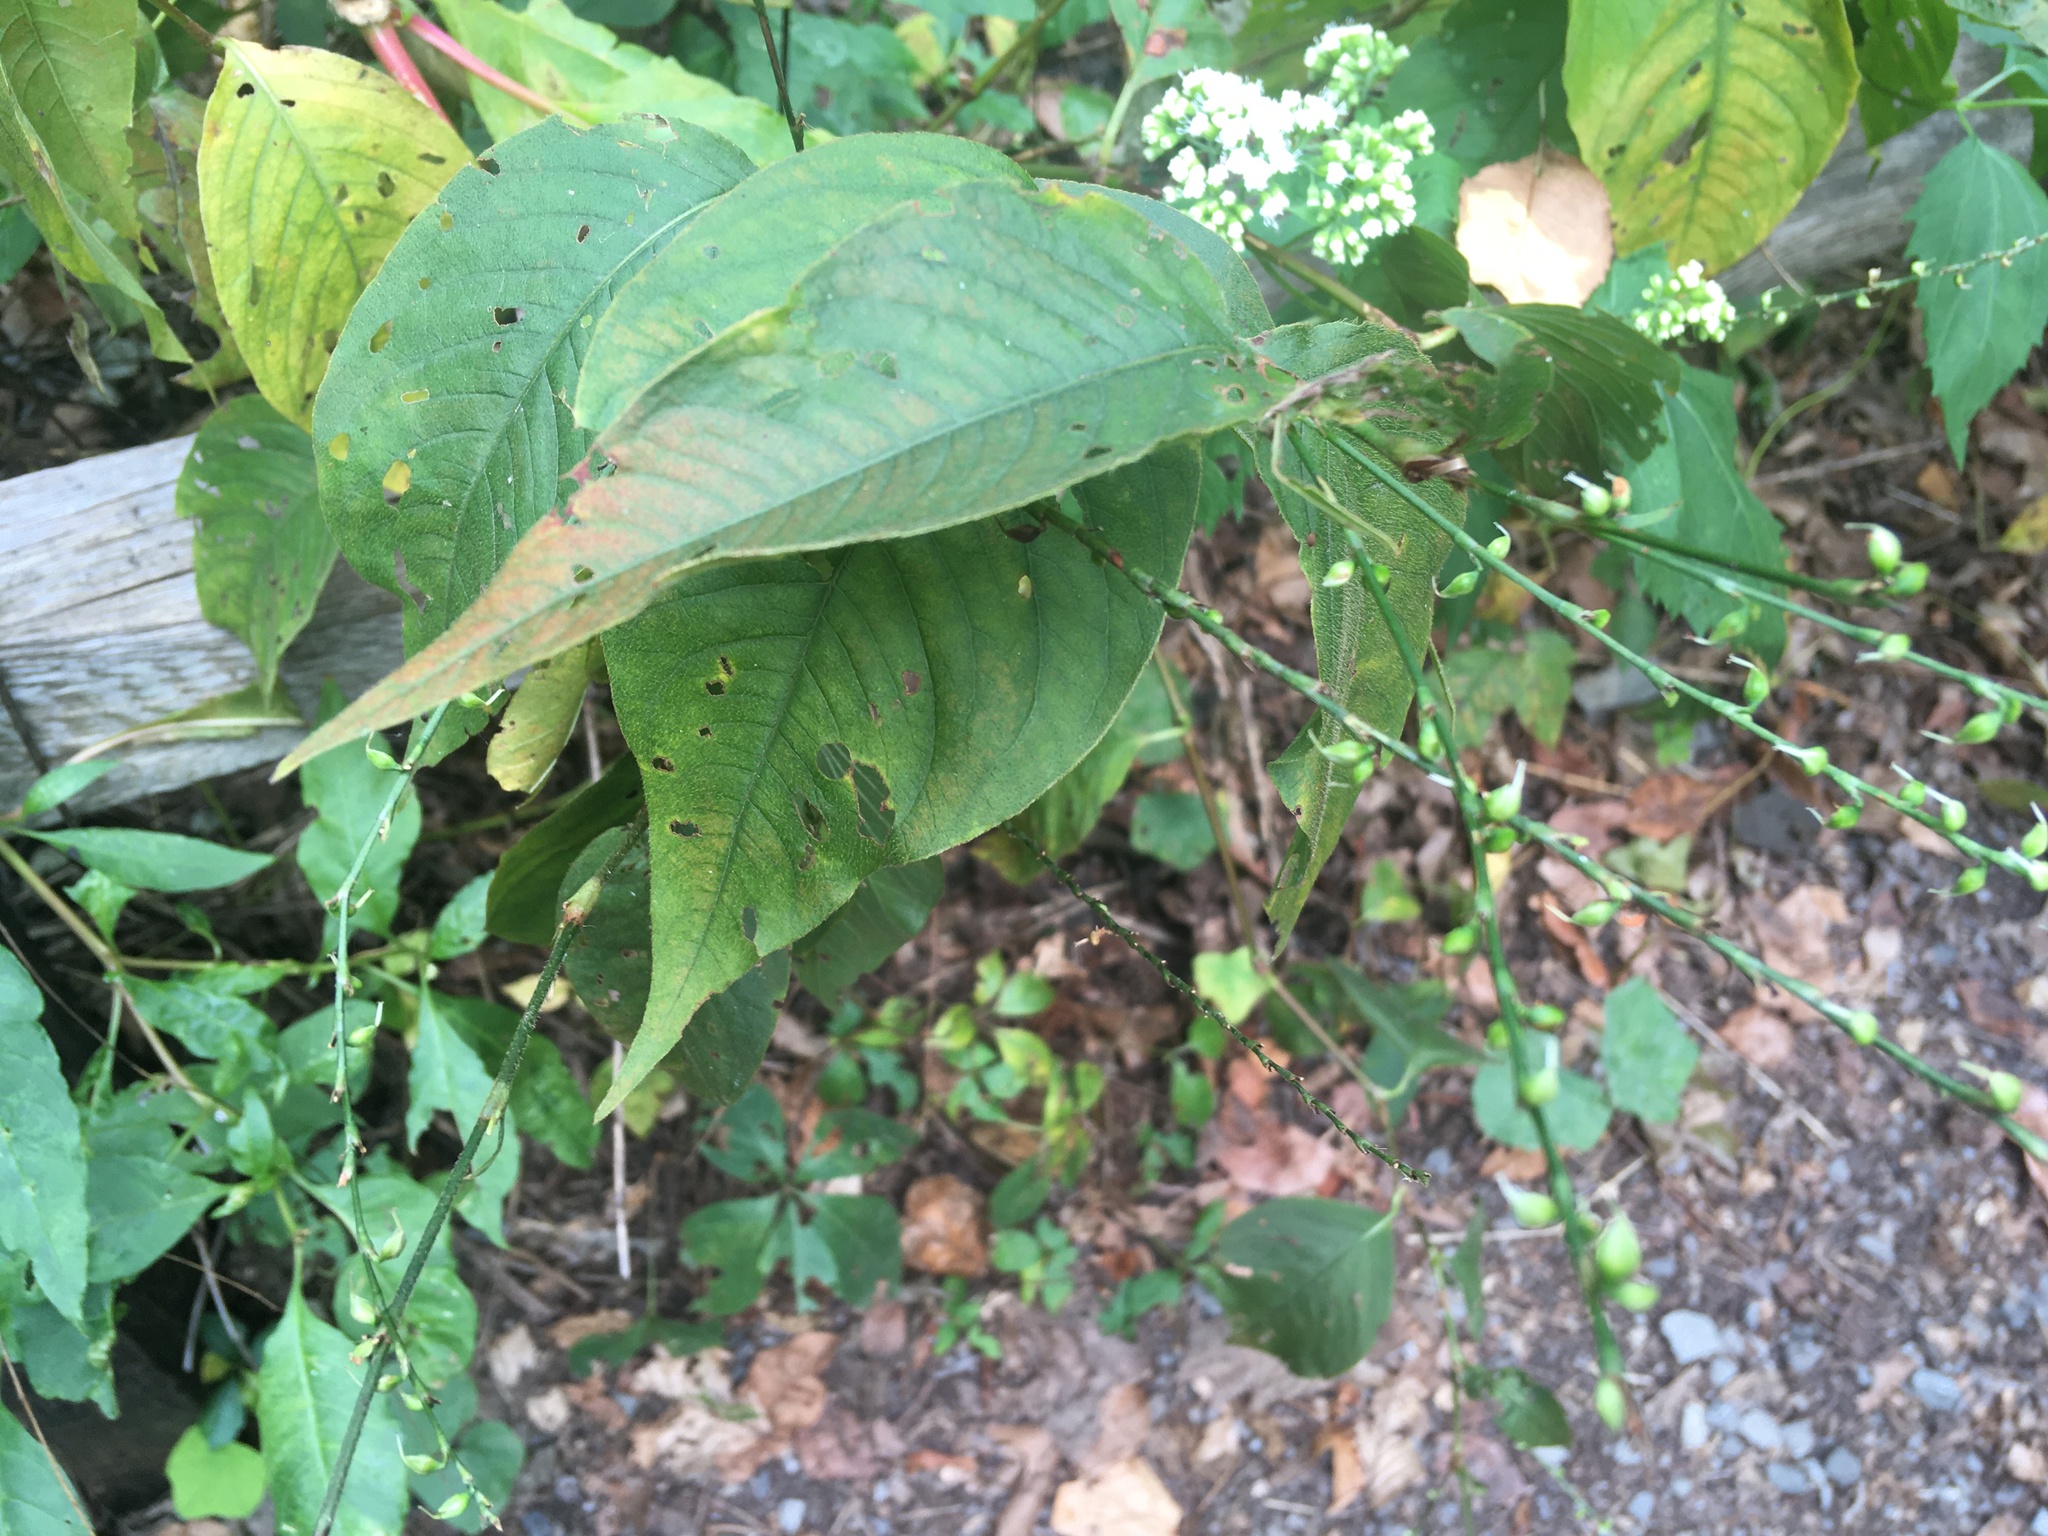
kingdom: Plantae
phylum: Tracheophyta
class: Magnoliopsida
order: Caryophyllales
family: Polygonaceae
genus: Persicaria
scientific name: Persicaria virginiana
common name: Jumpseed
